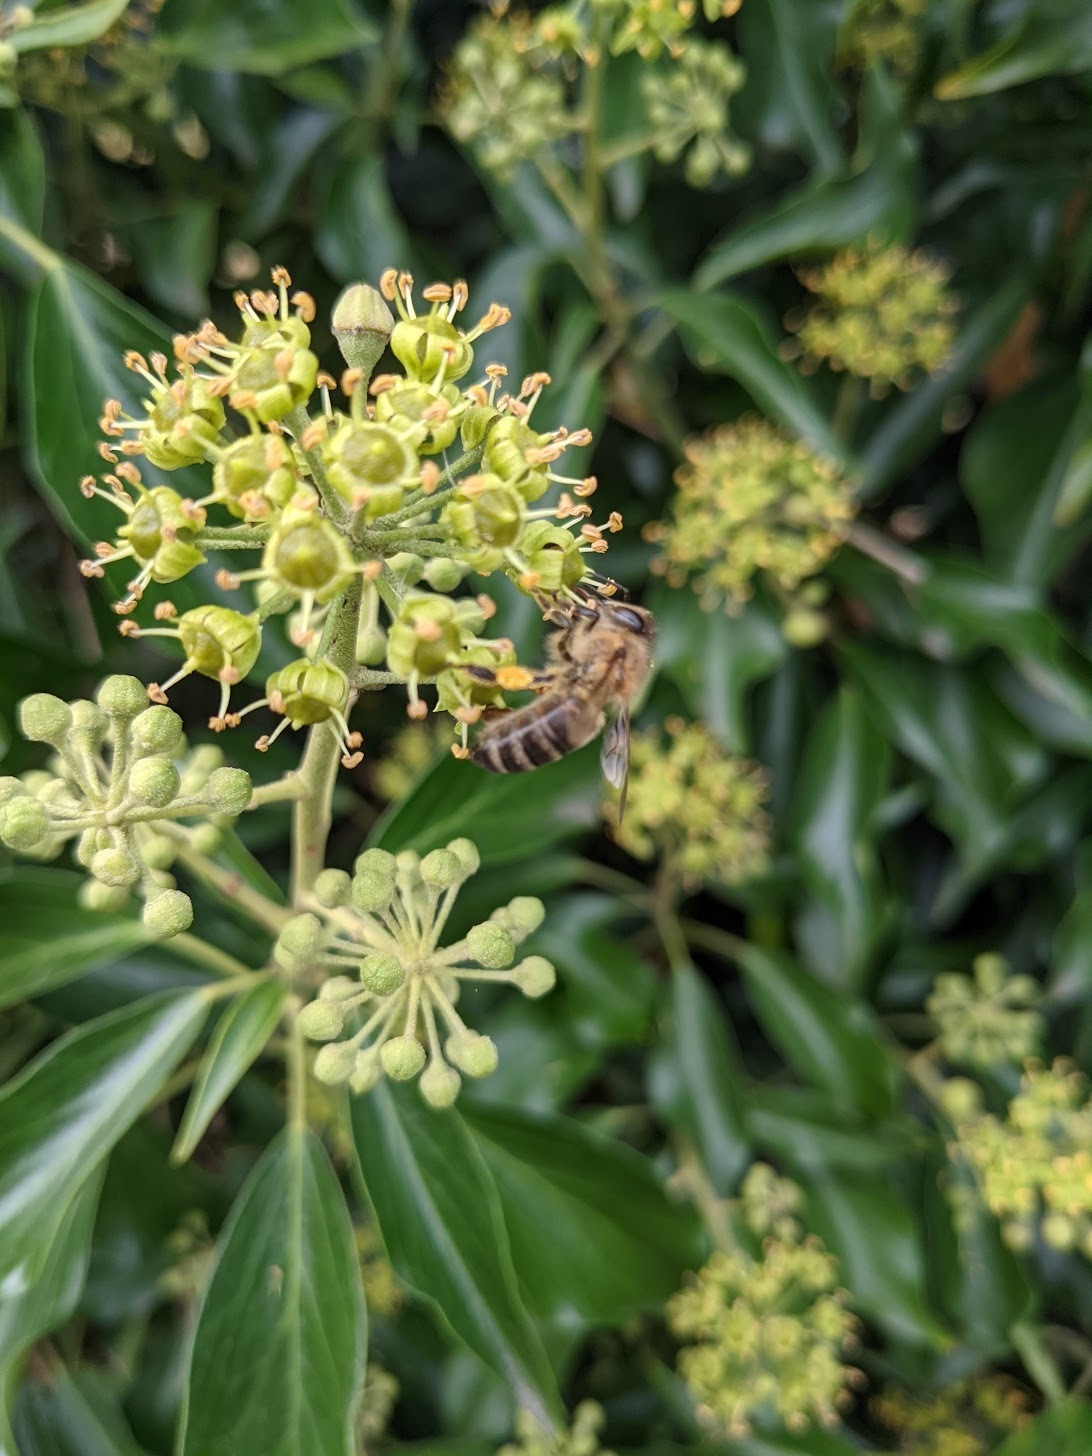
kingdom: Animalia
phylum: Arthropoda
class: Insecta
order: Hymenoptera
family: Apidae
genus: Apis
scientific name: Apis mellifera
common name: Honey bee
